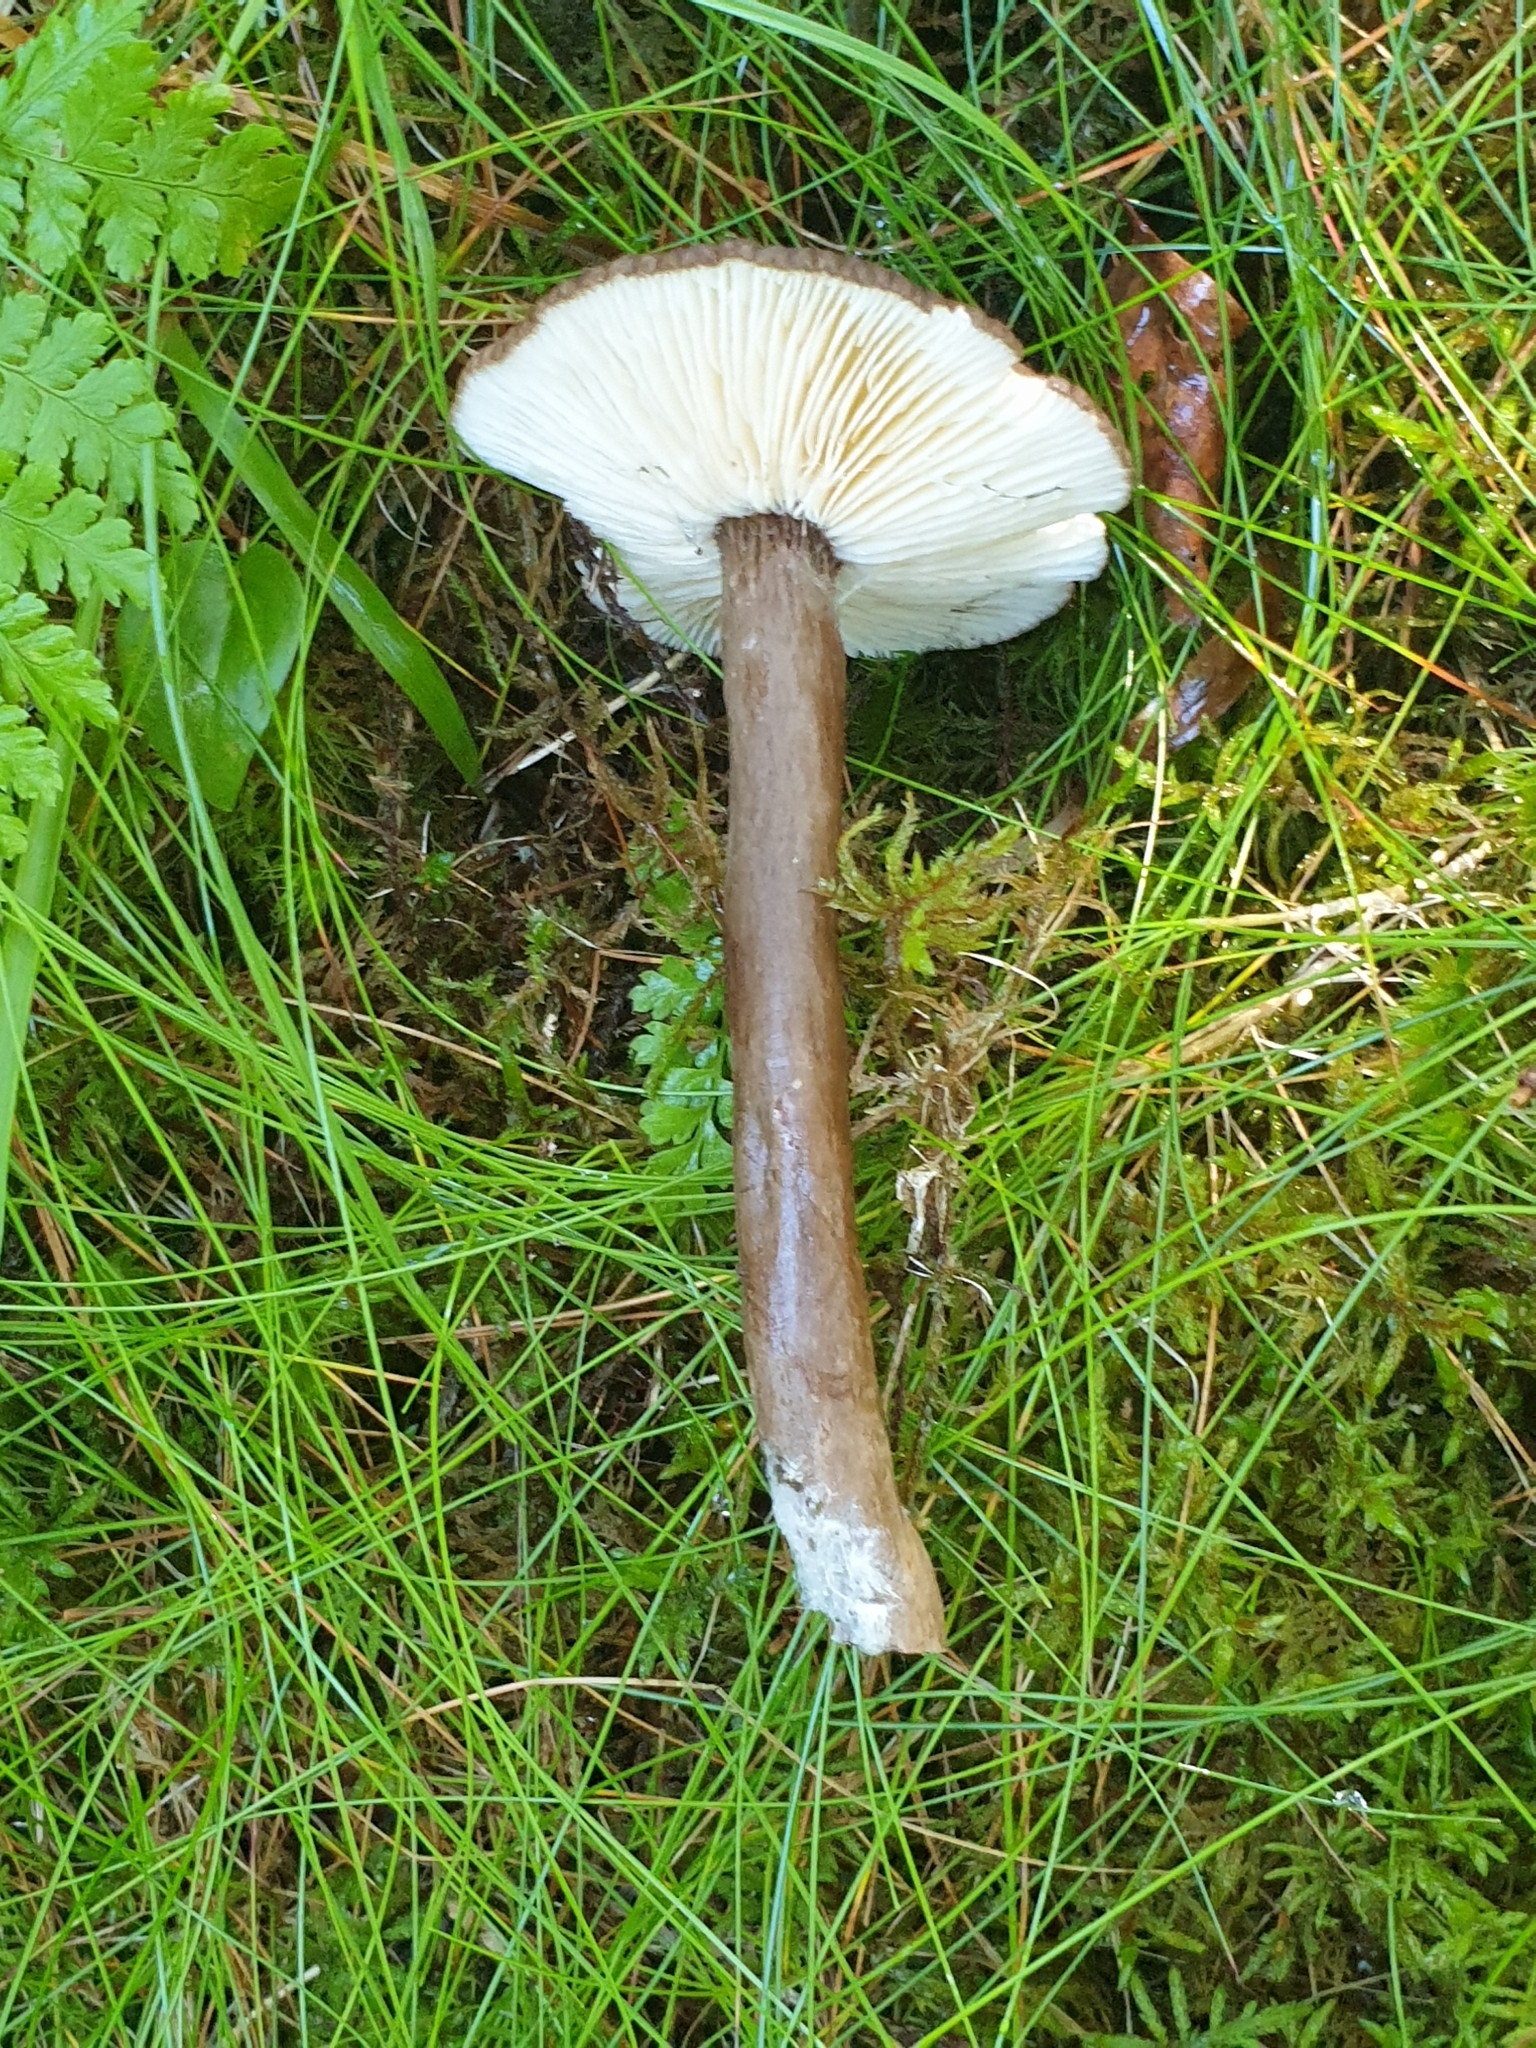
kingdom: Fungi
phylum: Basidiomycota
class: Agaricomycetes
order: Russulales
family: Russulaceae
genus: Lactarius
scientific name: Lactarius lignyotus
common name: Velvet milkcap
